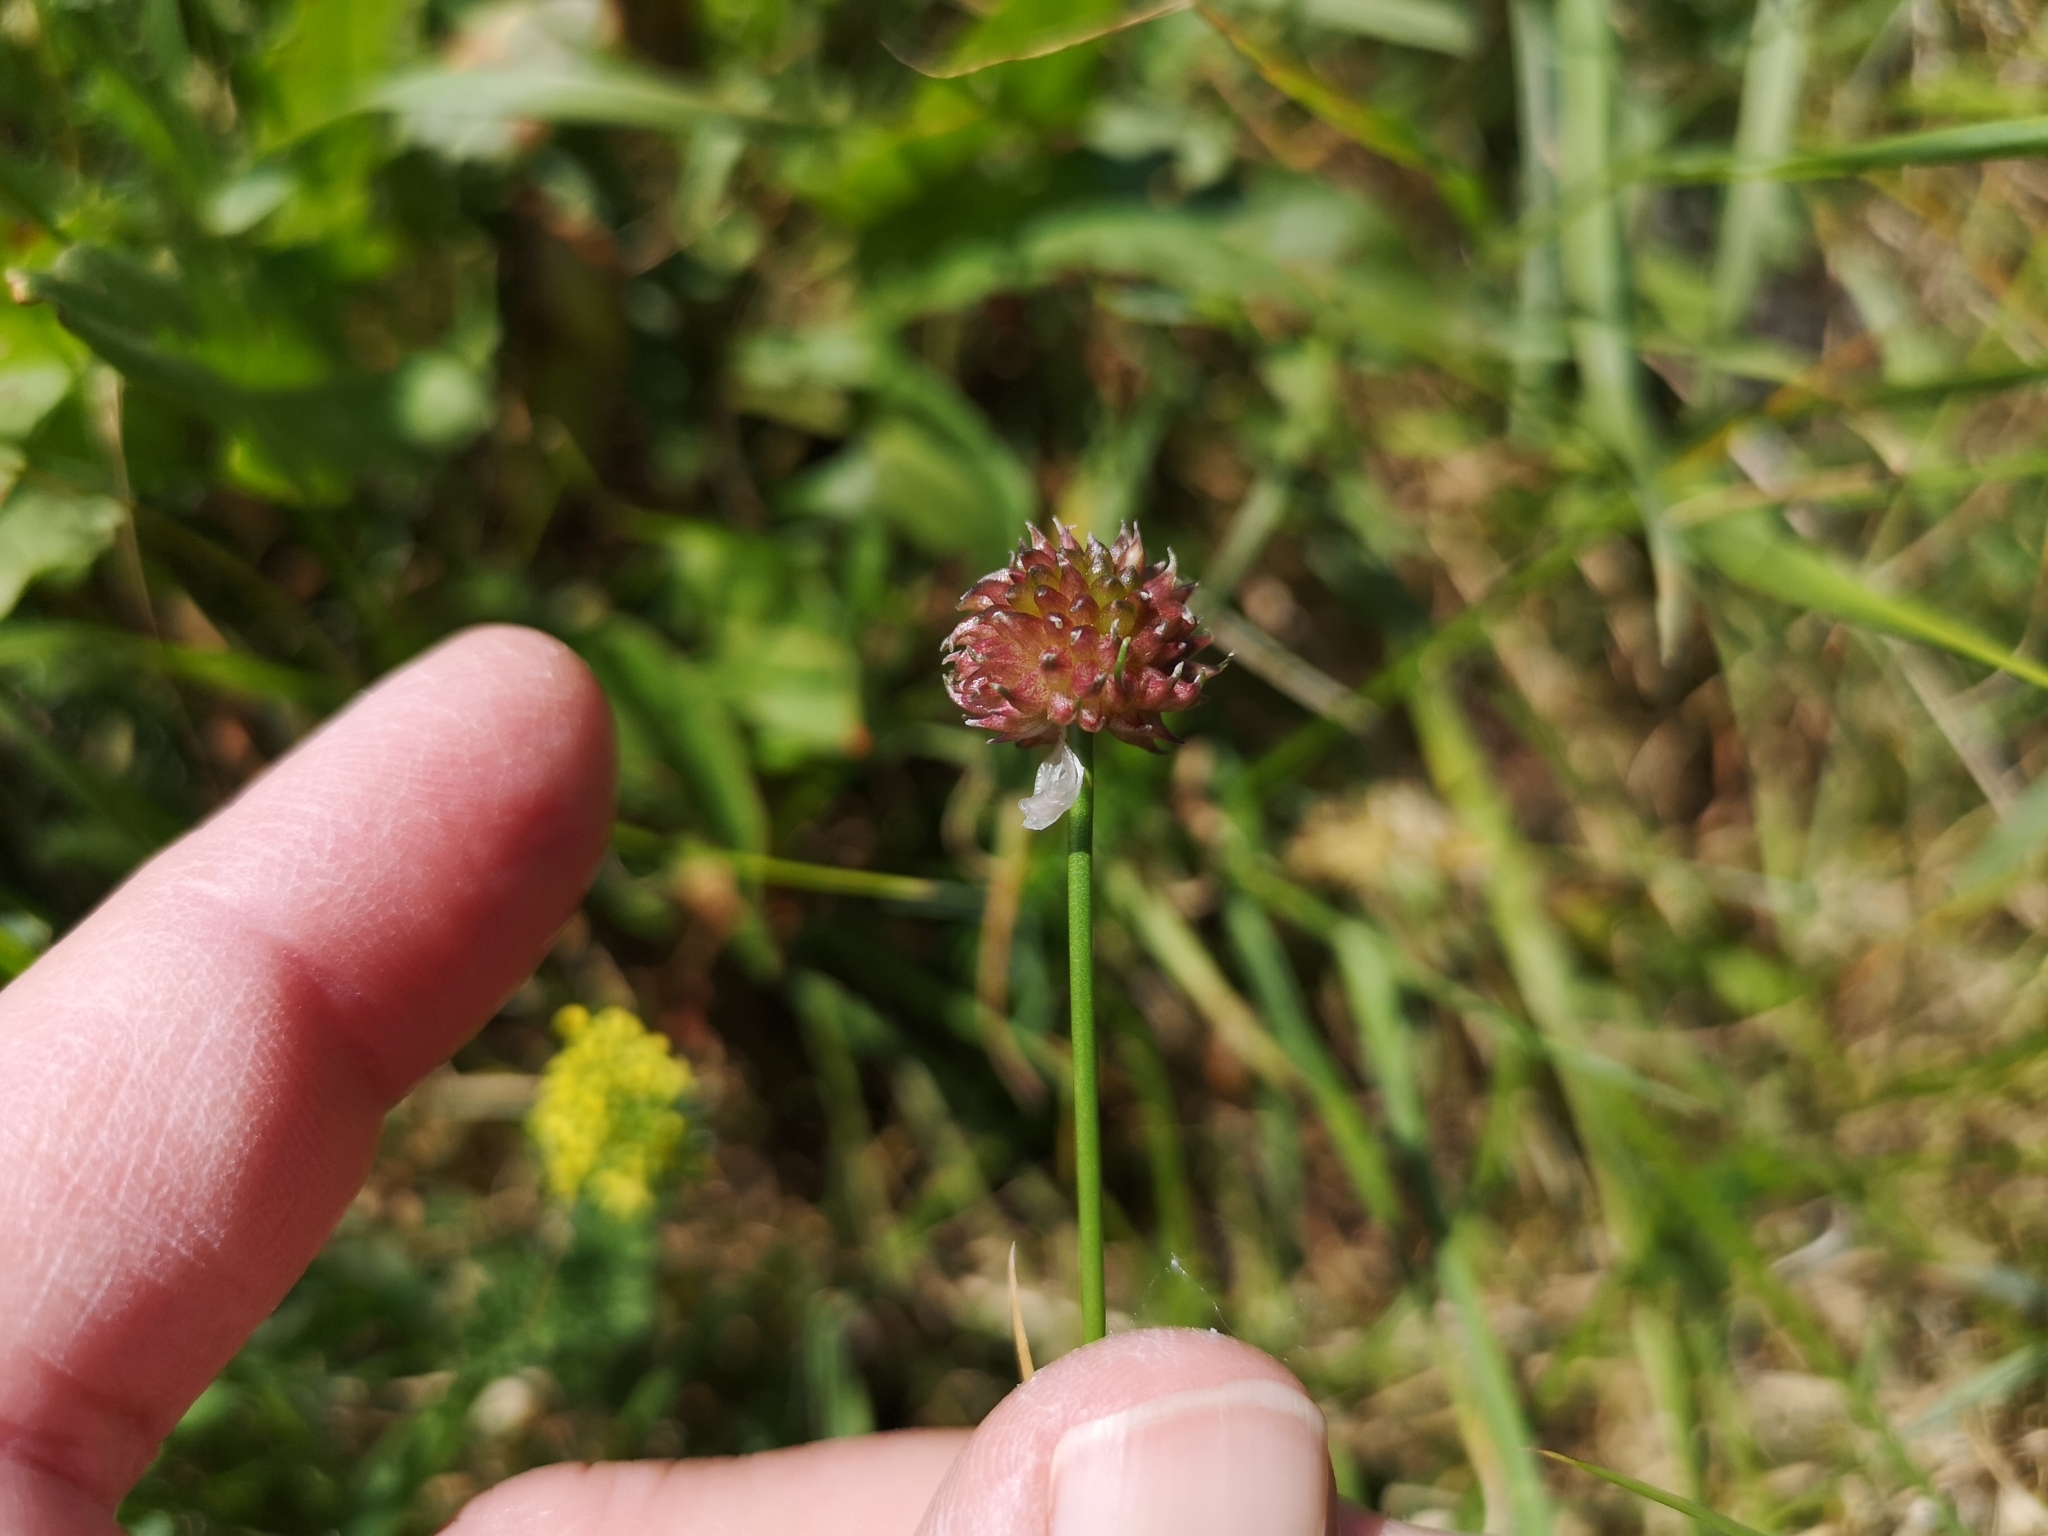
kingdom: Plantae
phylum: Tracheophyta
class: Liliopsida
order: Asparagales
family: Amaryllidaceae
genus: Allium
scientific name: Allium vineale
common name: Crow garlic
